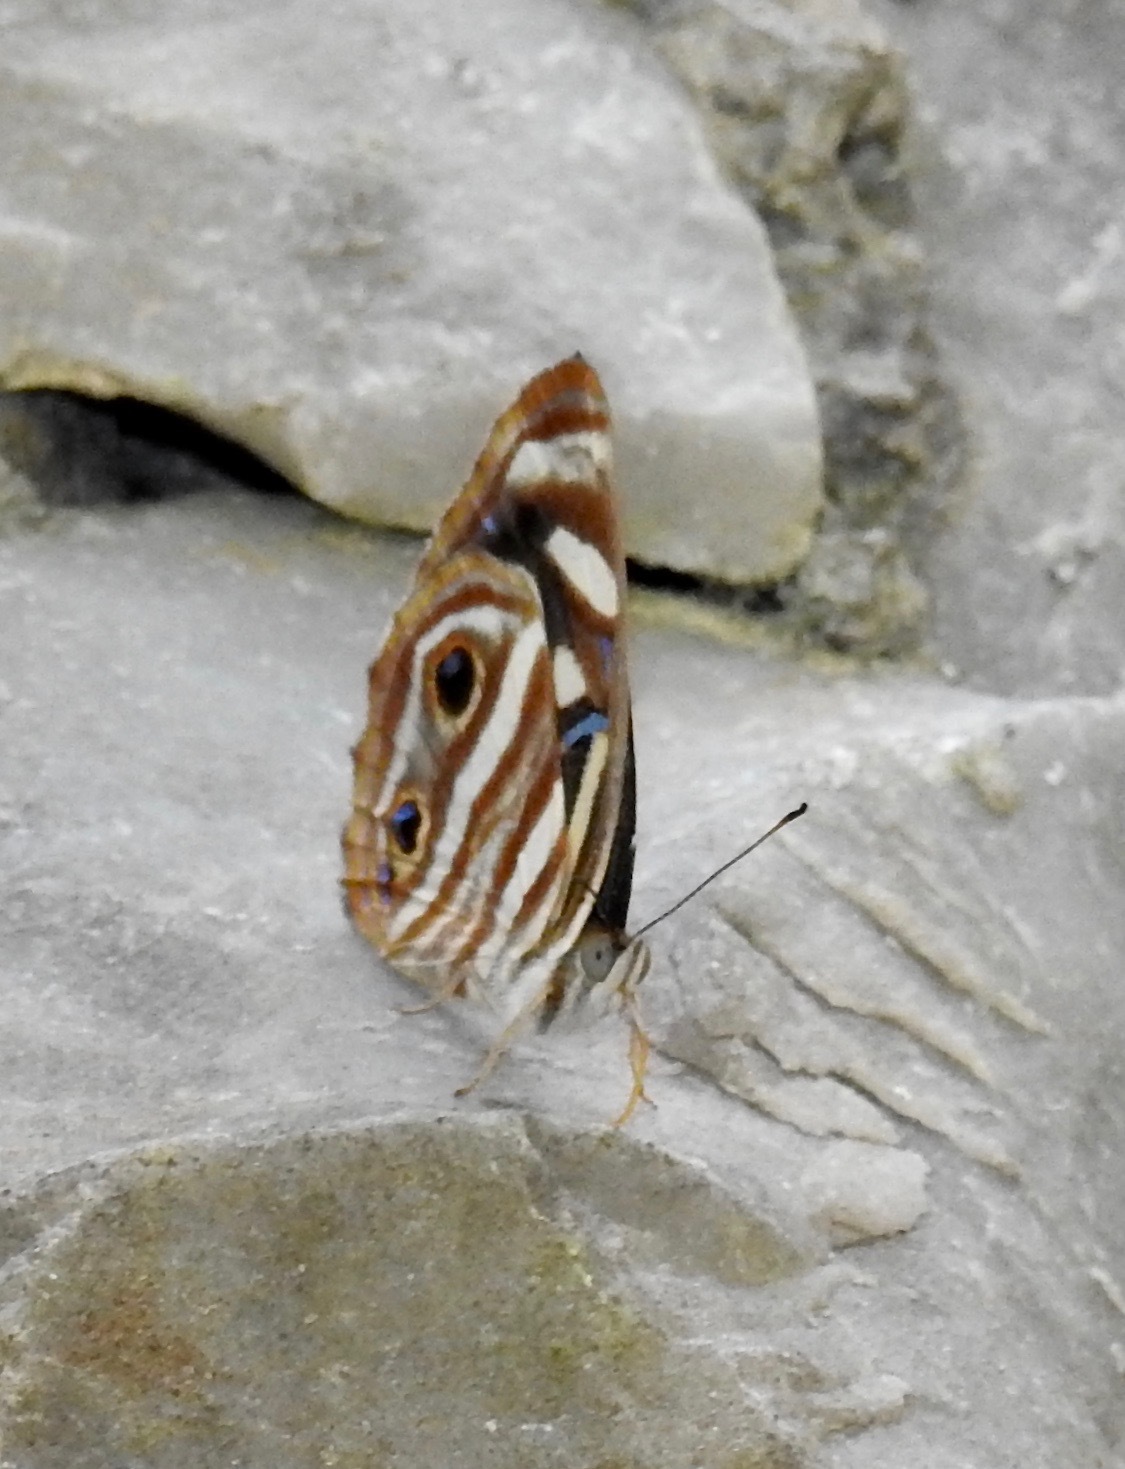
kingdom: Animalia
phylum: Arthropoda
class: Insecta
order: Lepidoptera
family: Nymphalidae
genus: Dynamine
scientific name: Dynamine mylitta
